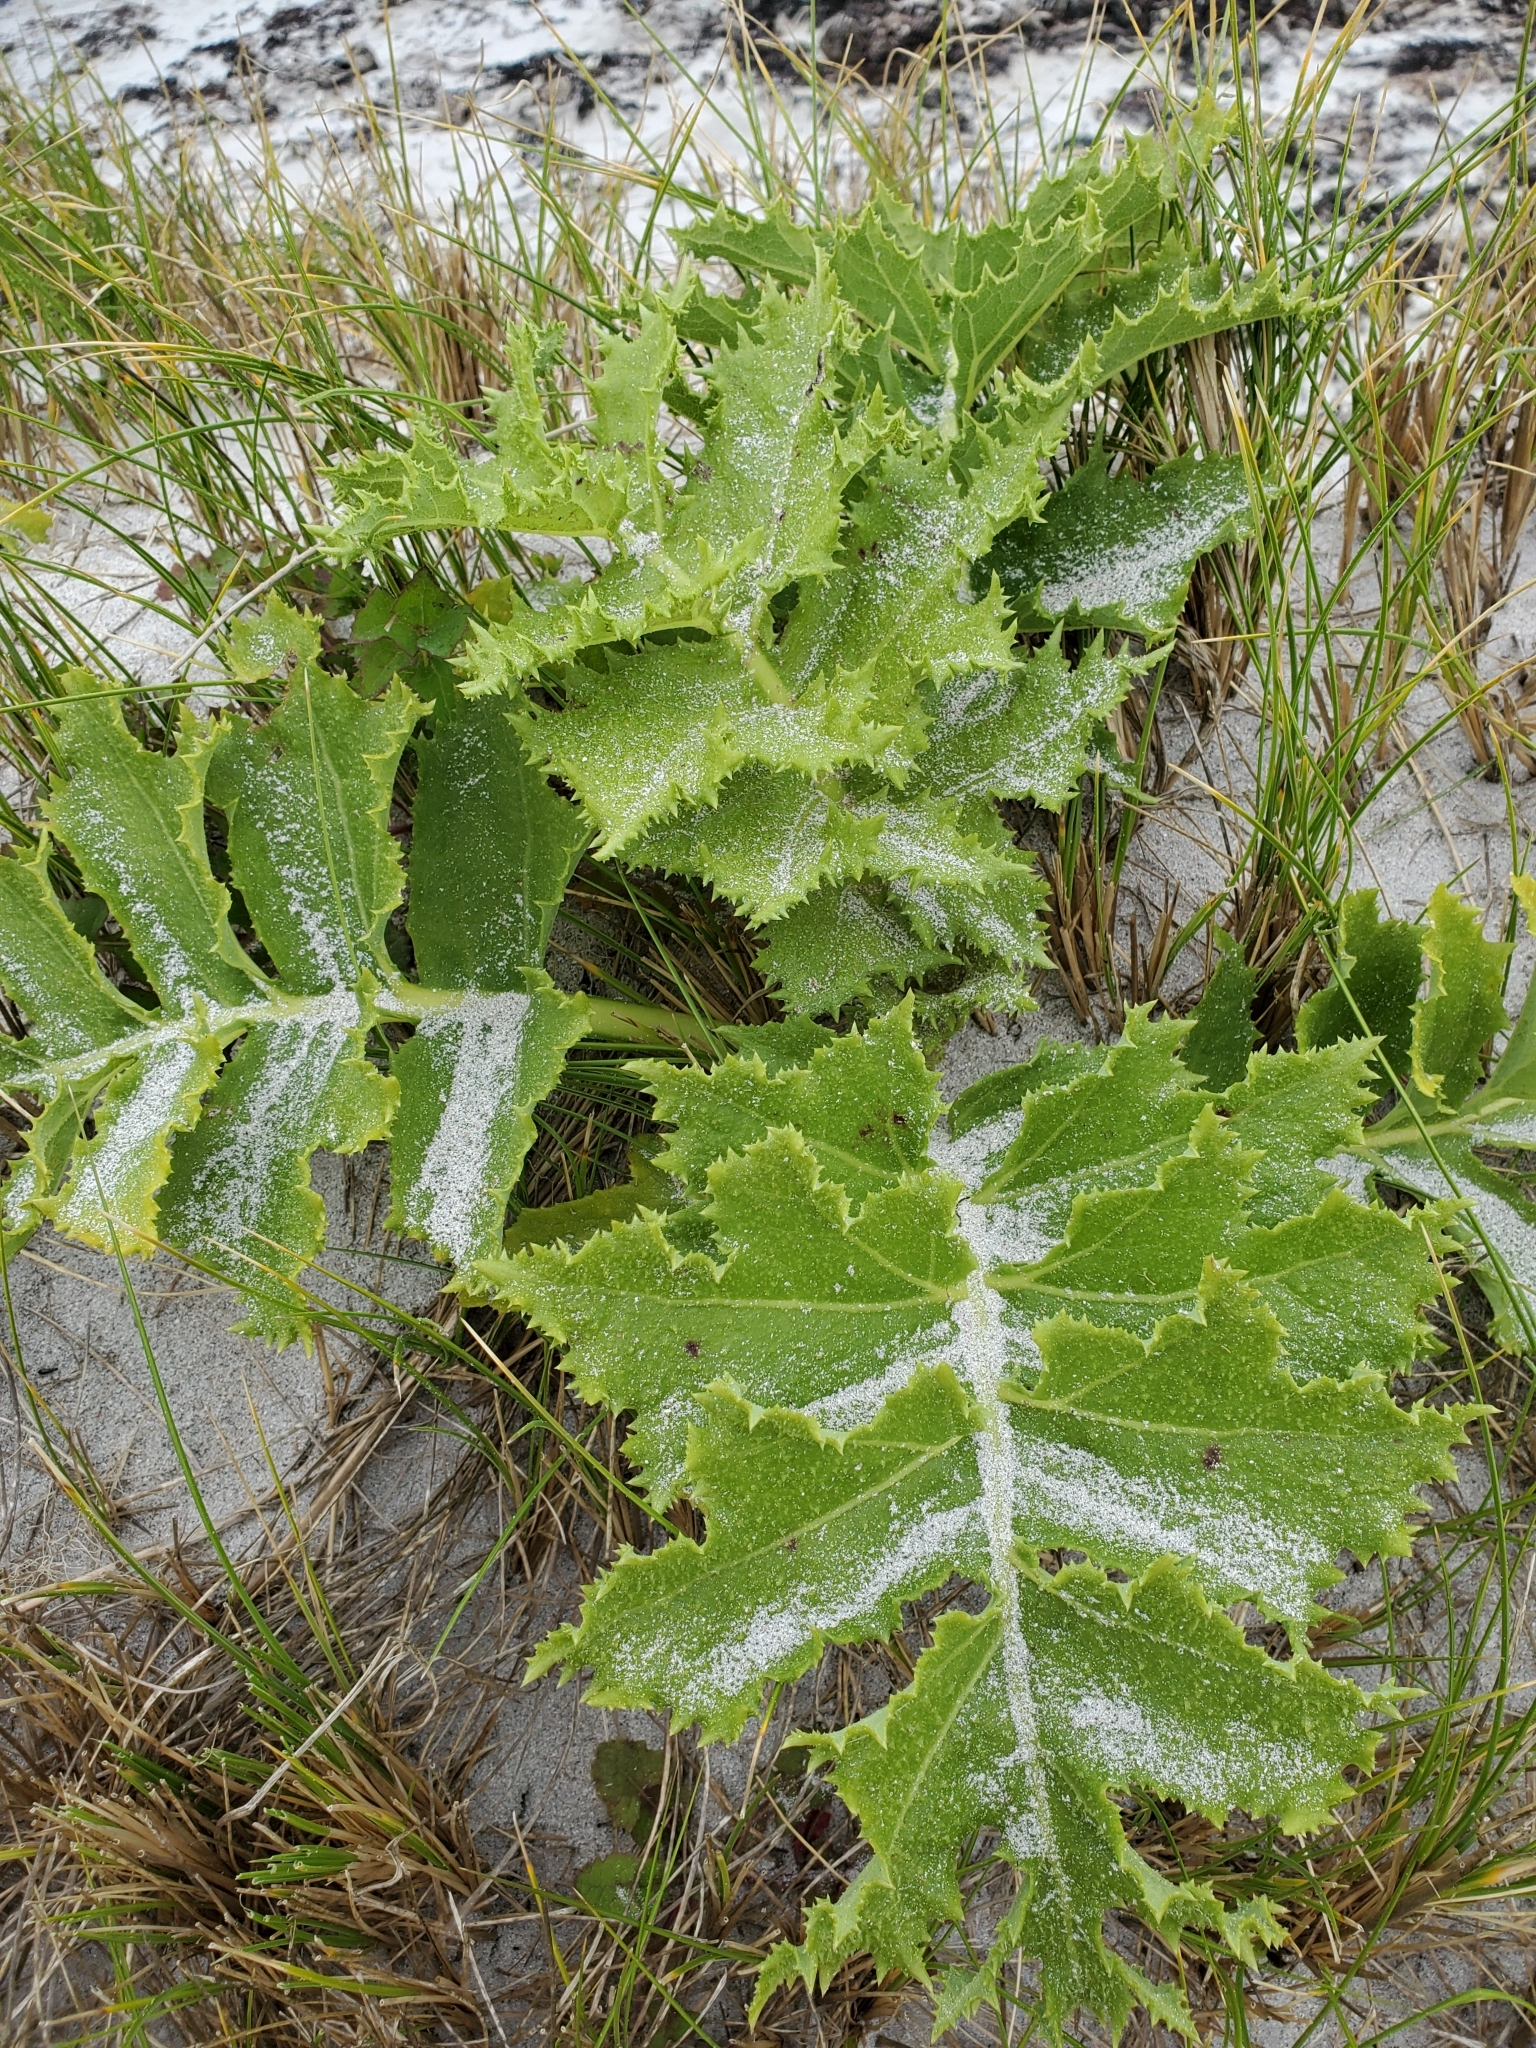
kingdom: Plantae
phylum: Tracheophyta
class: Magnoliopsida
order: Asterales
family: Asteraceae
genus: Sonchus
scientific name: Sonchus grandifolius
